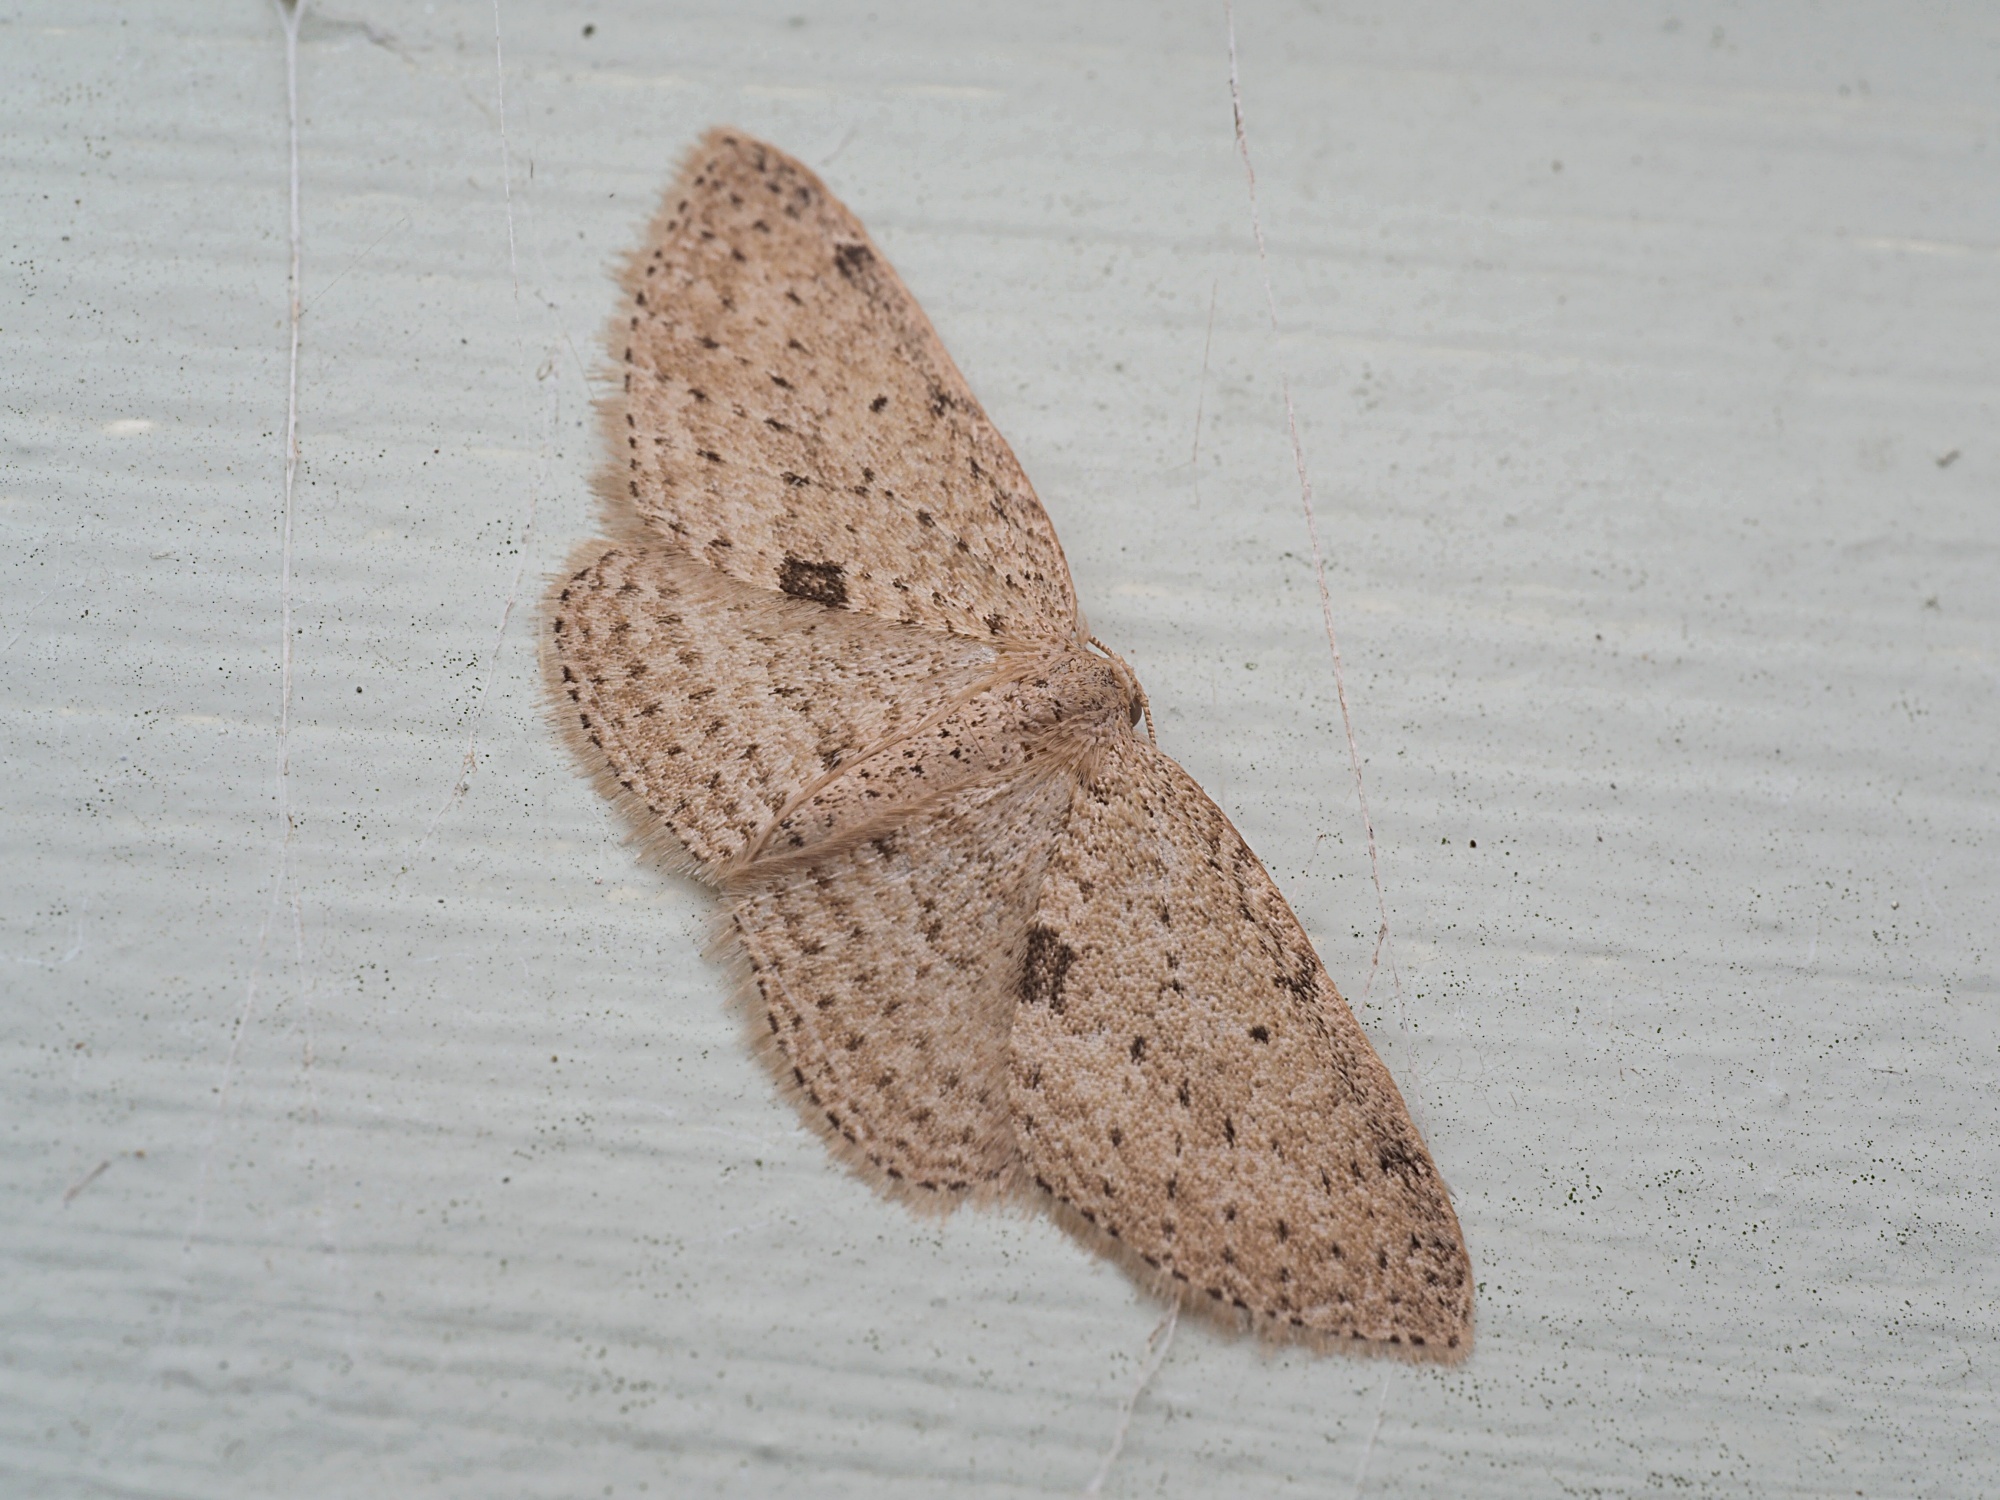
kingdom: Animalia
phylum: Arthropoda
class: Insecta
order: Lepidoptera
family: Geometridae
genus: Poecilasthena
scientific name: Poecilasthena schistaria
